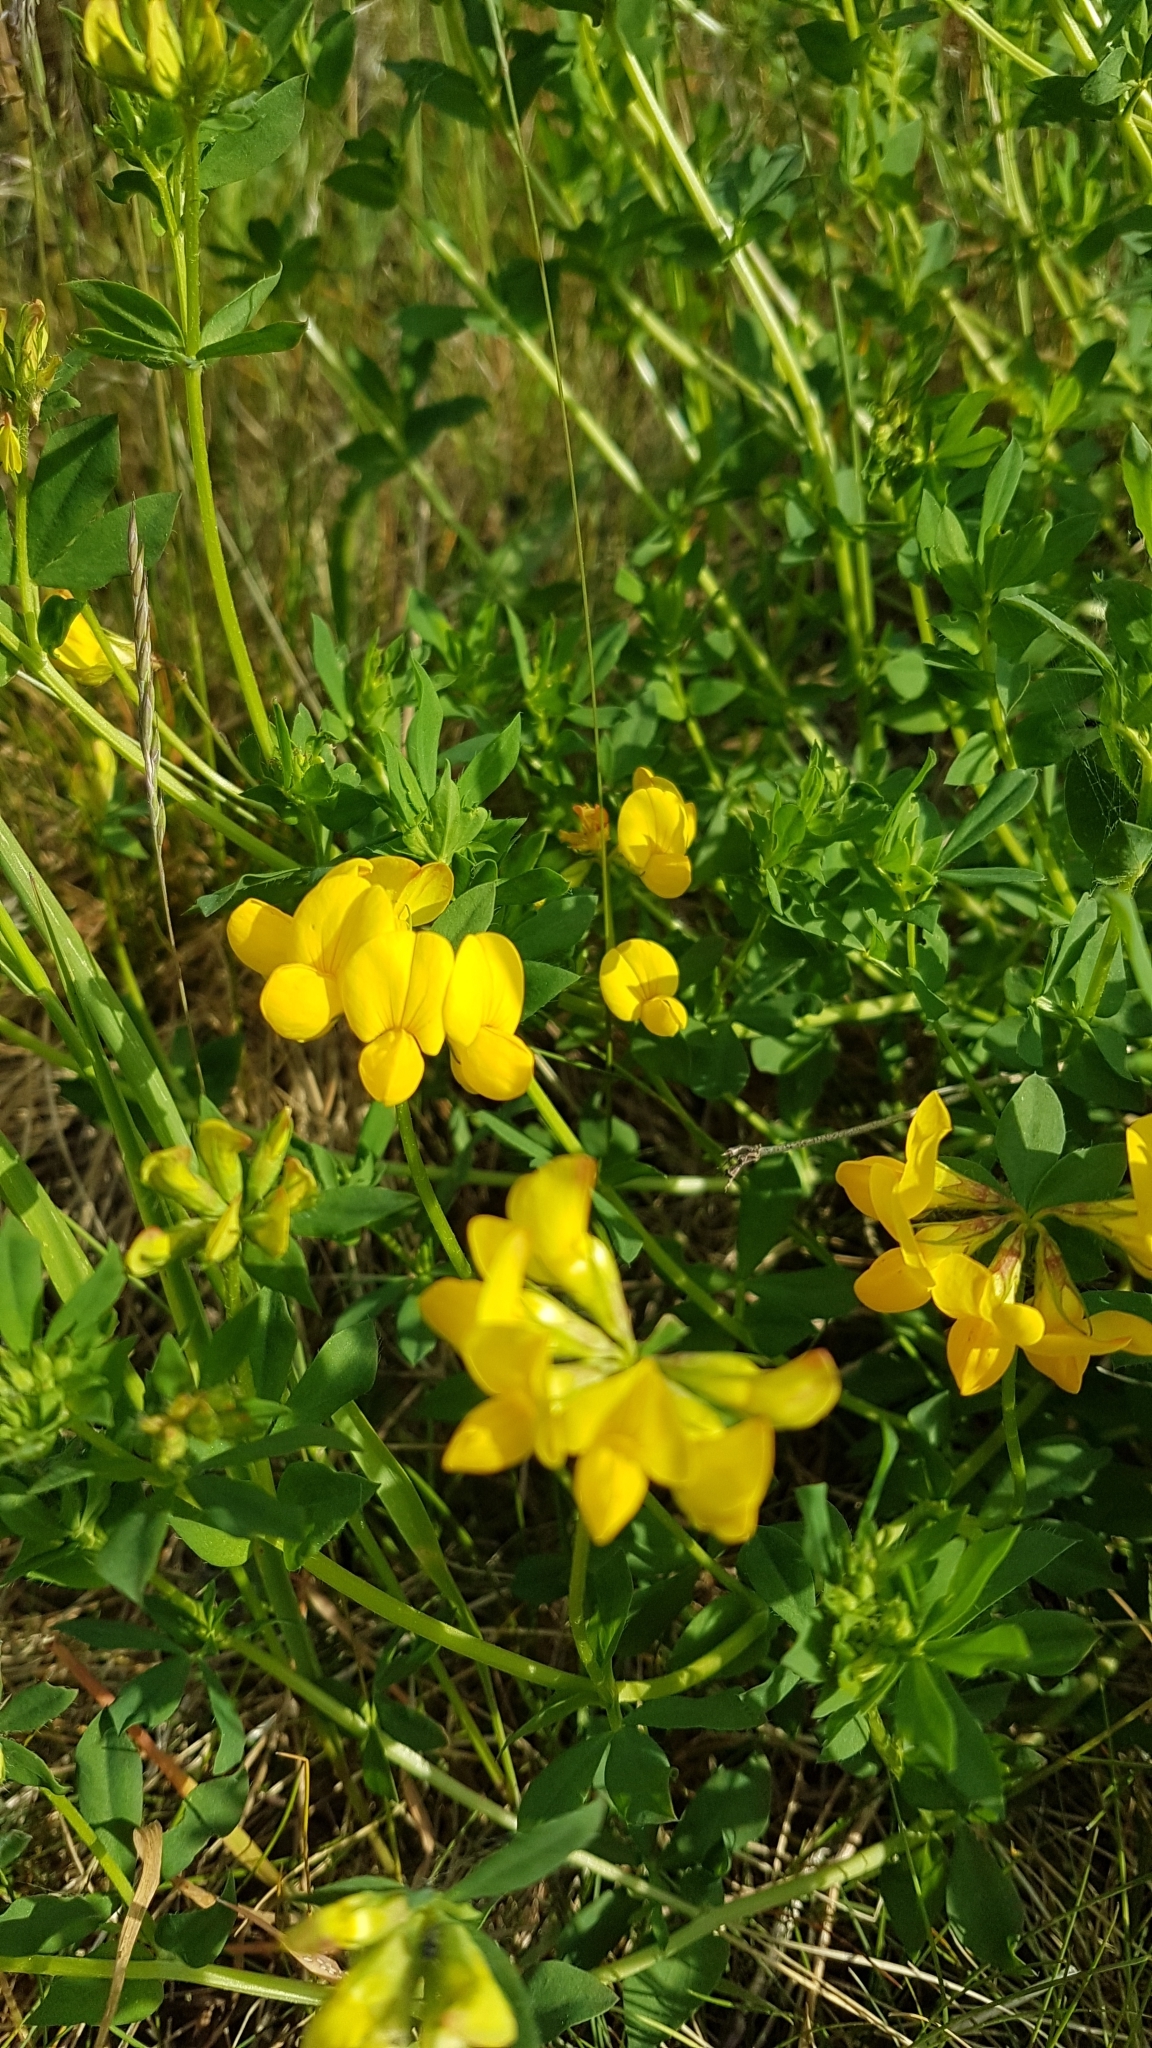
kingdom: Plantae
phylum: Tracheophyta
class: Magnoliopsida
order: Fabales
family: Fabaceae
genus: Lotus
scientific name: Lotus corniculatus
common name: Common bird's-foot-trefoil
